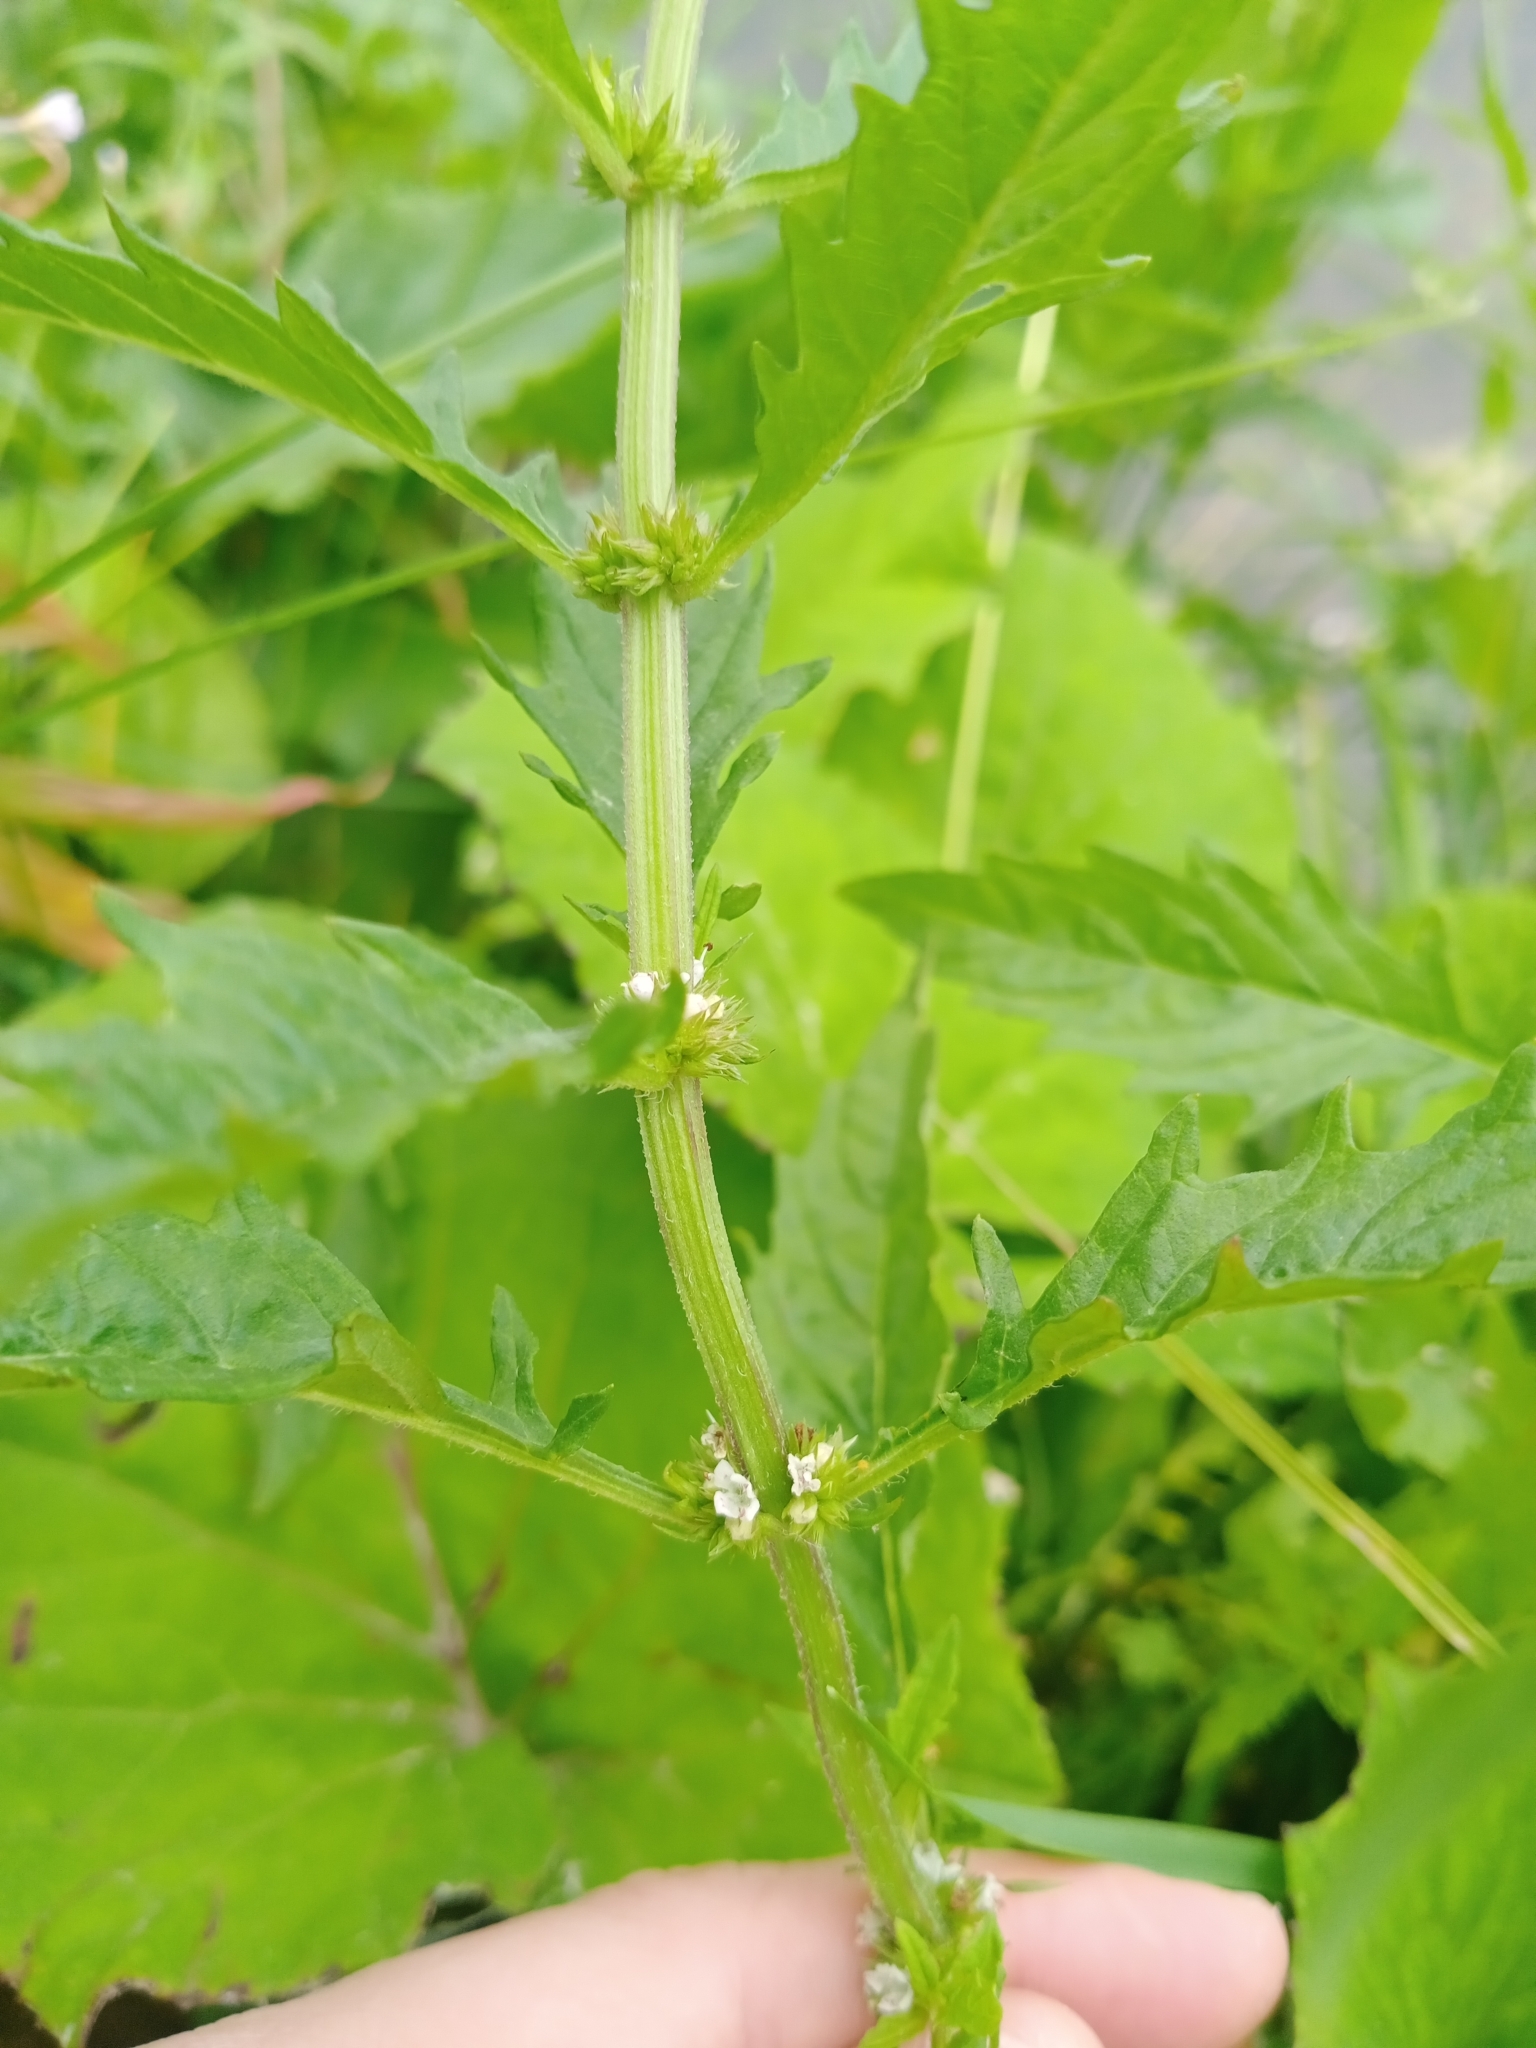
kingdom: Plantae
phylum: Tracheophyta
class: Magnoliopsida
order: Lamiales
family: Lamiaceae
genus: Lycopus
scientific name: Lycopus europaeus
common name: European bugleweed
